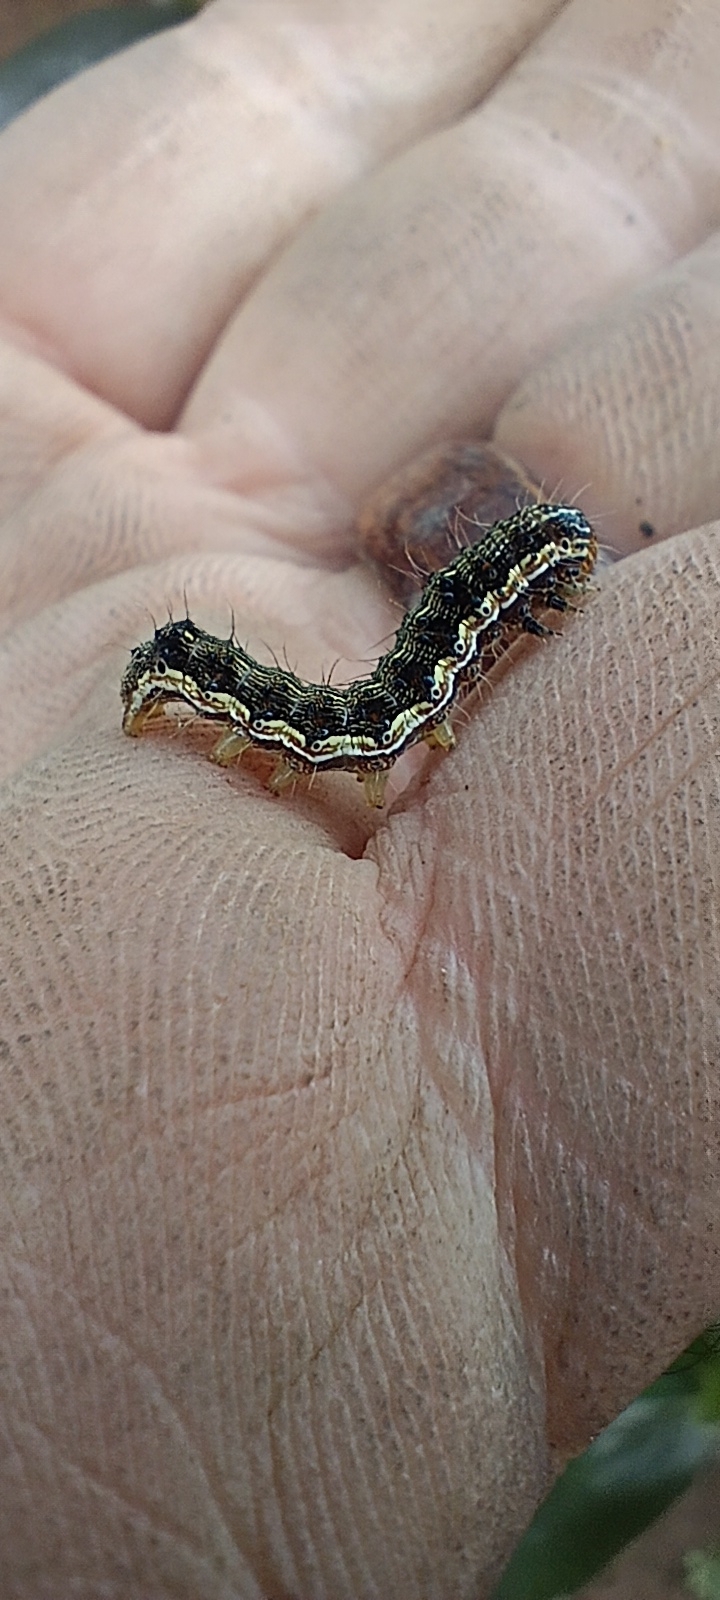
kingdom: Animalia
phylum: Arthropoda
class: Insecta
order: Lepidoptera
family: Noctuidae
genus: Helicoverpa
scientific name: Helicoverpa armigera
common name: Cotton bollworm
